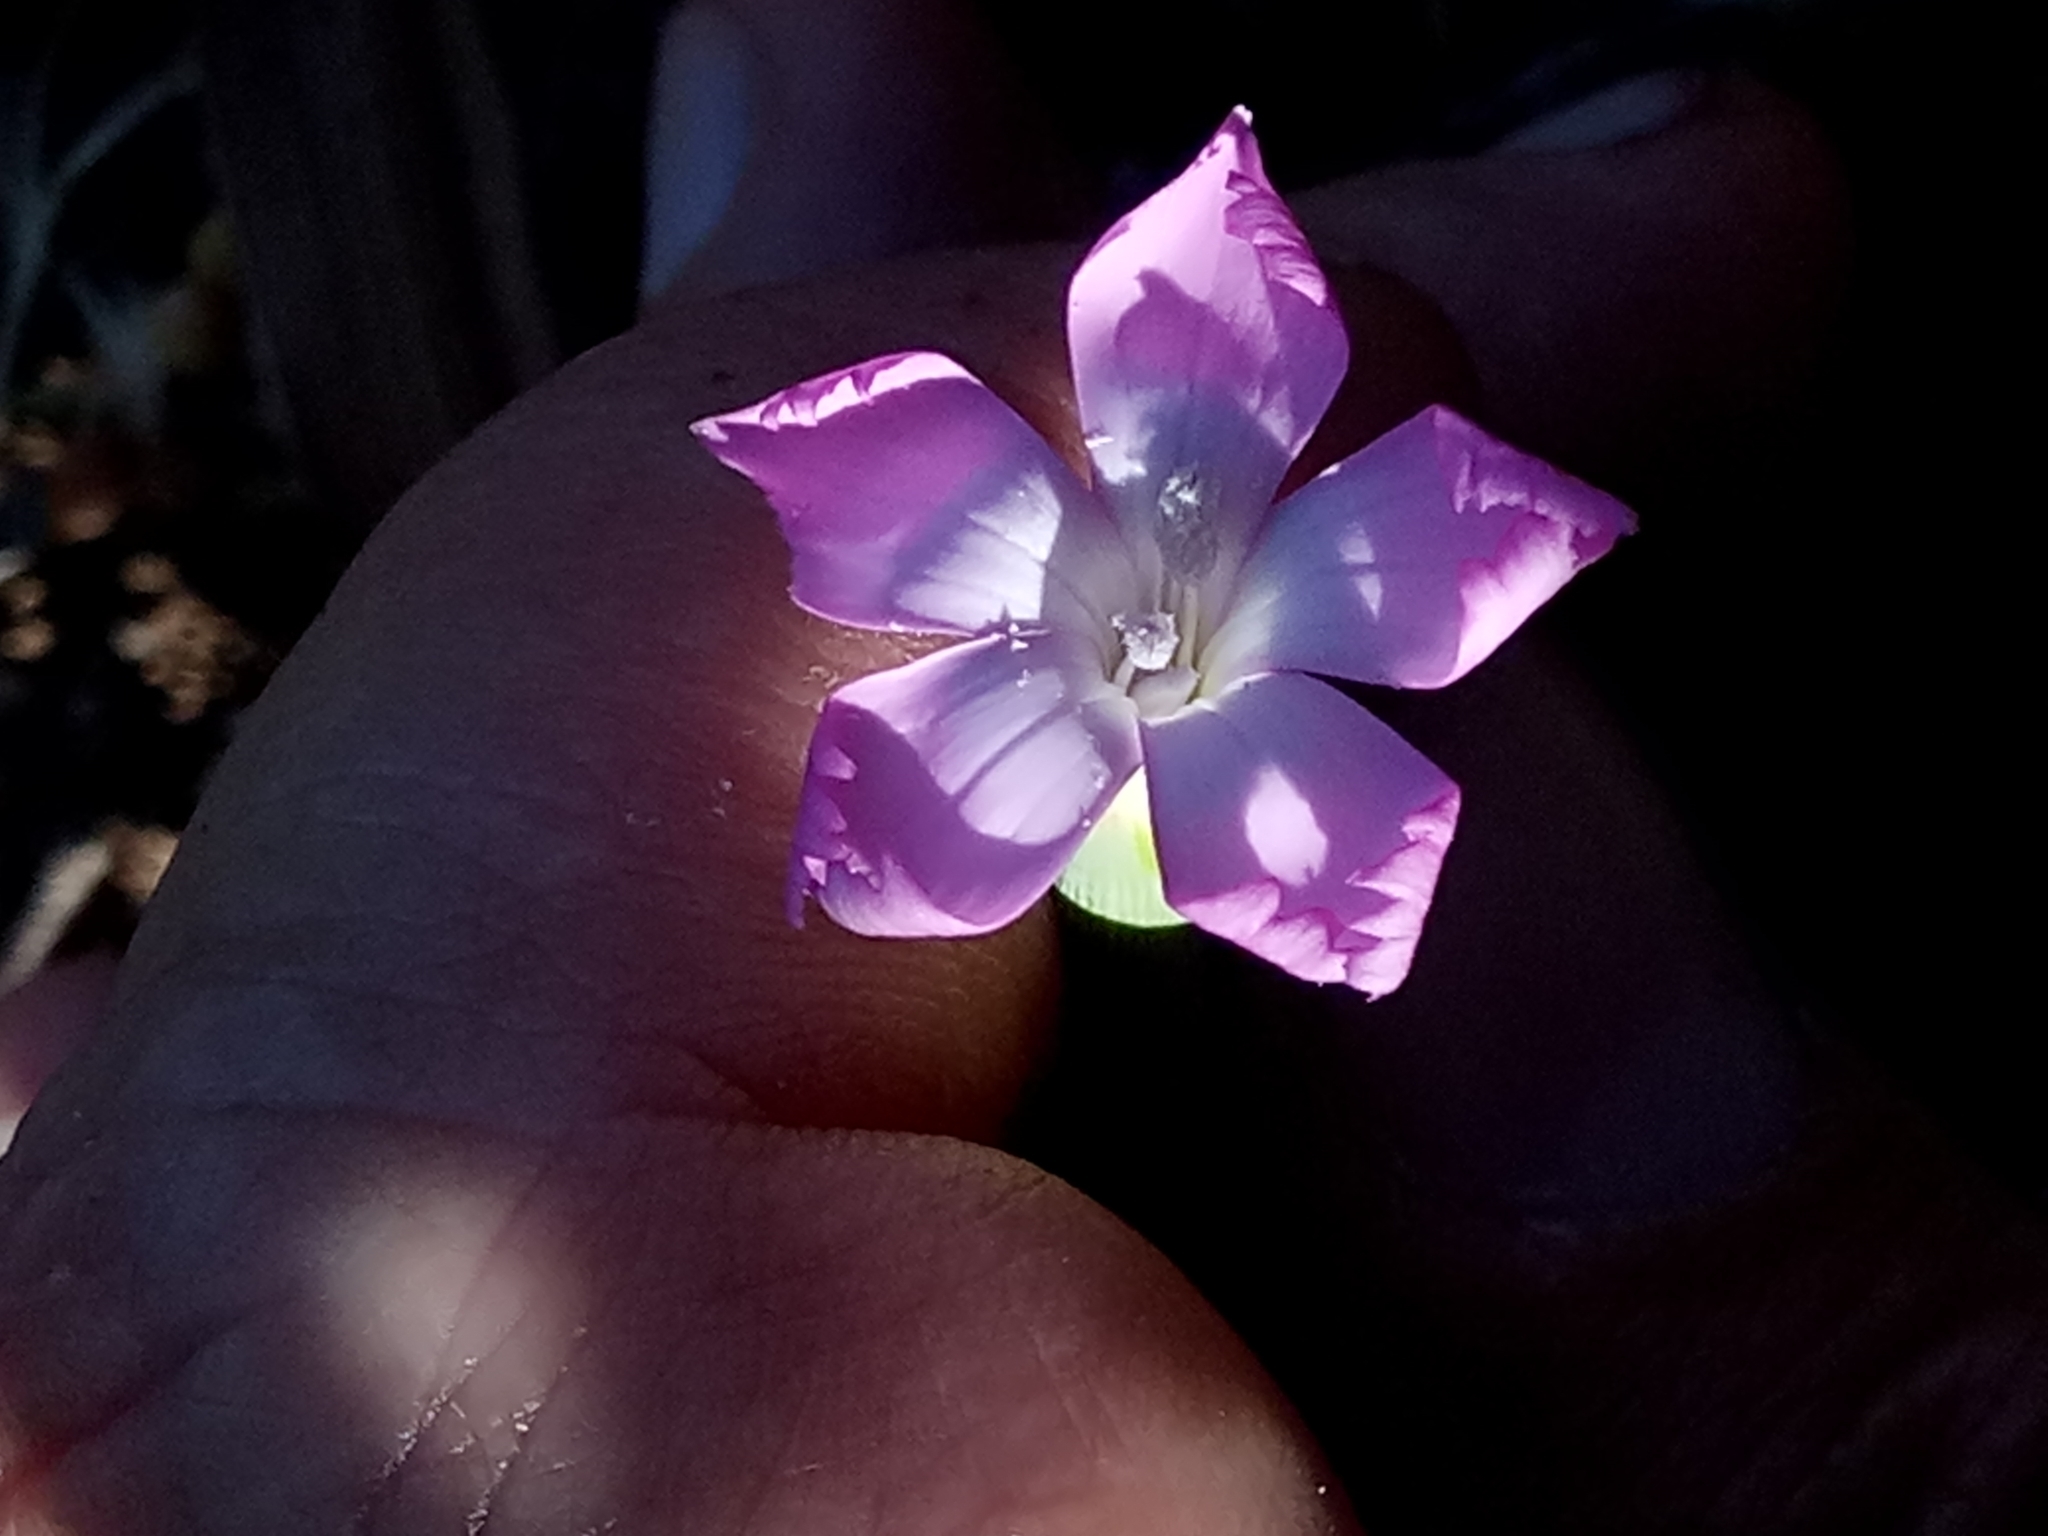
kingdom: Plantae
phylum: Tracheophyta
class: Magnoliopsida
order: Caryophyllales
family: Caryophyllaceae
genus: Dianthus
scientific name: Dianthus sylvestris
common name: Wood pink
